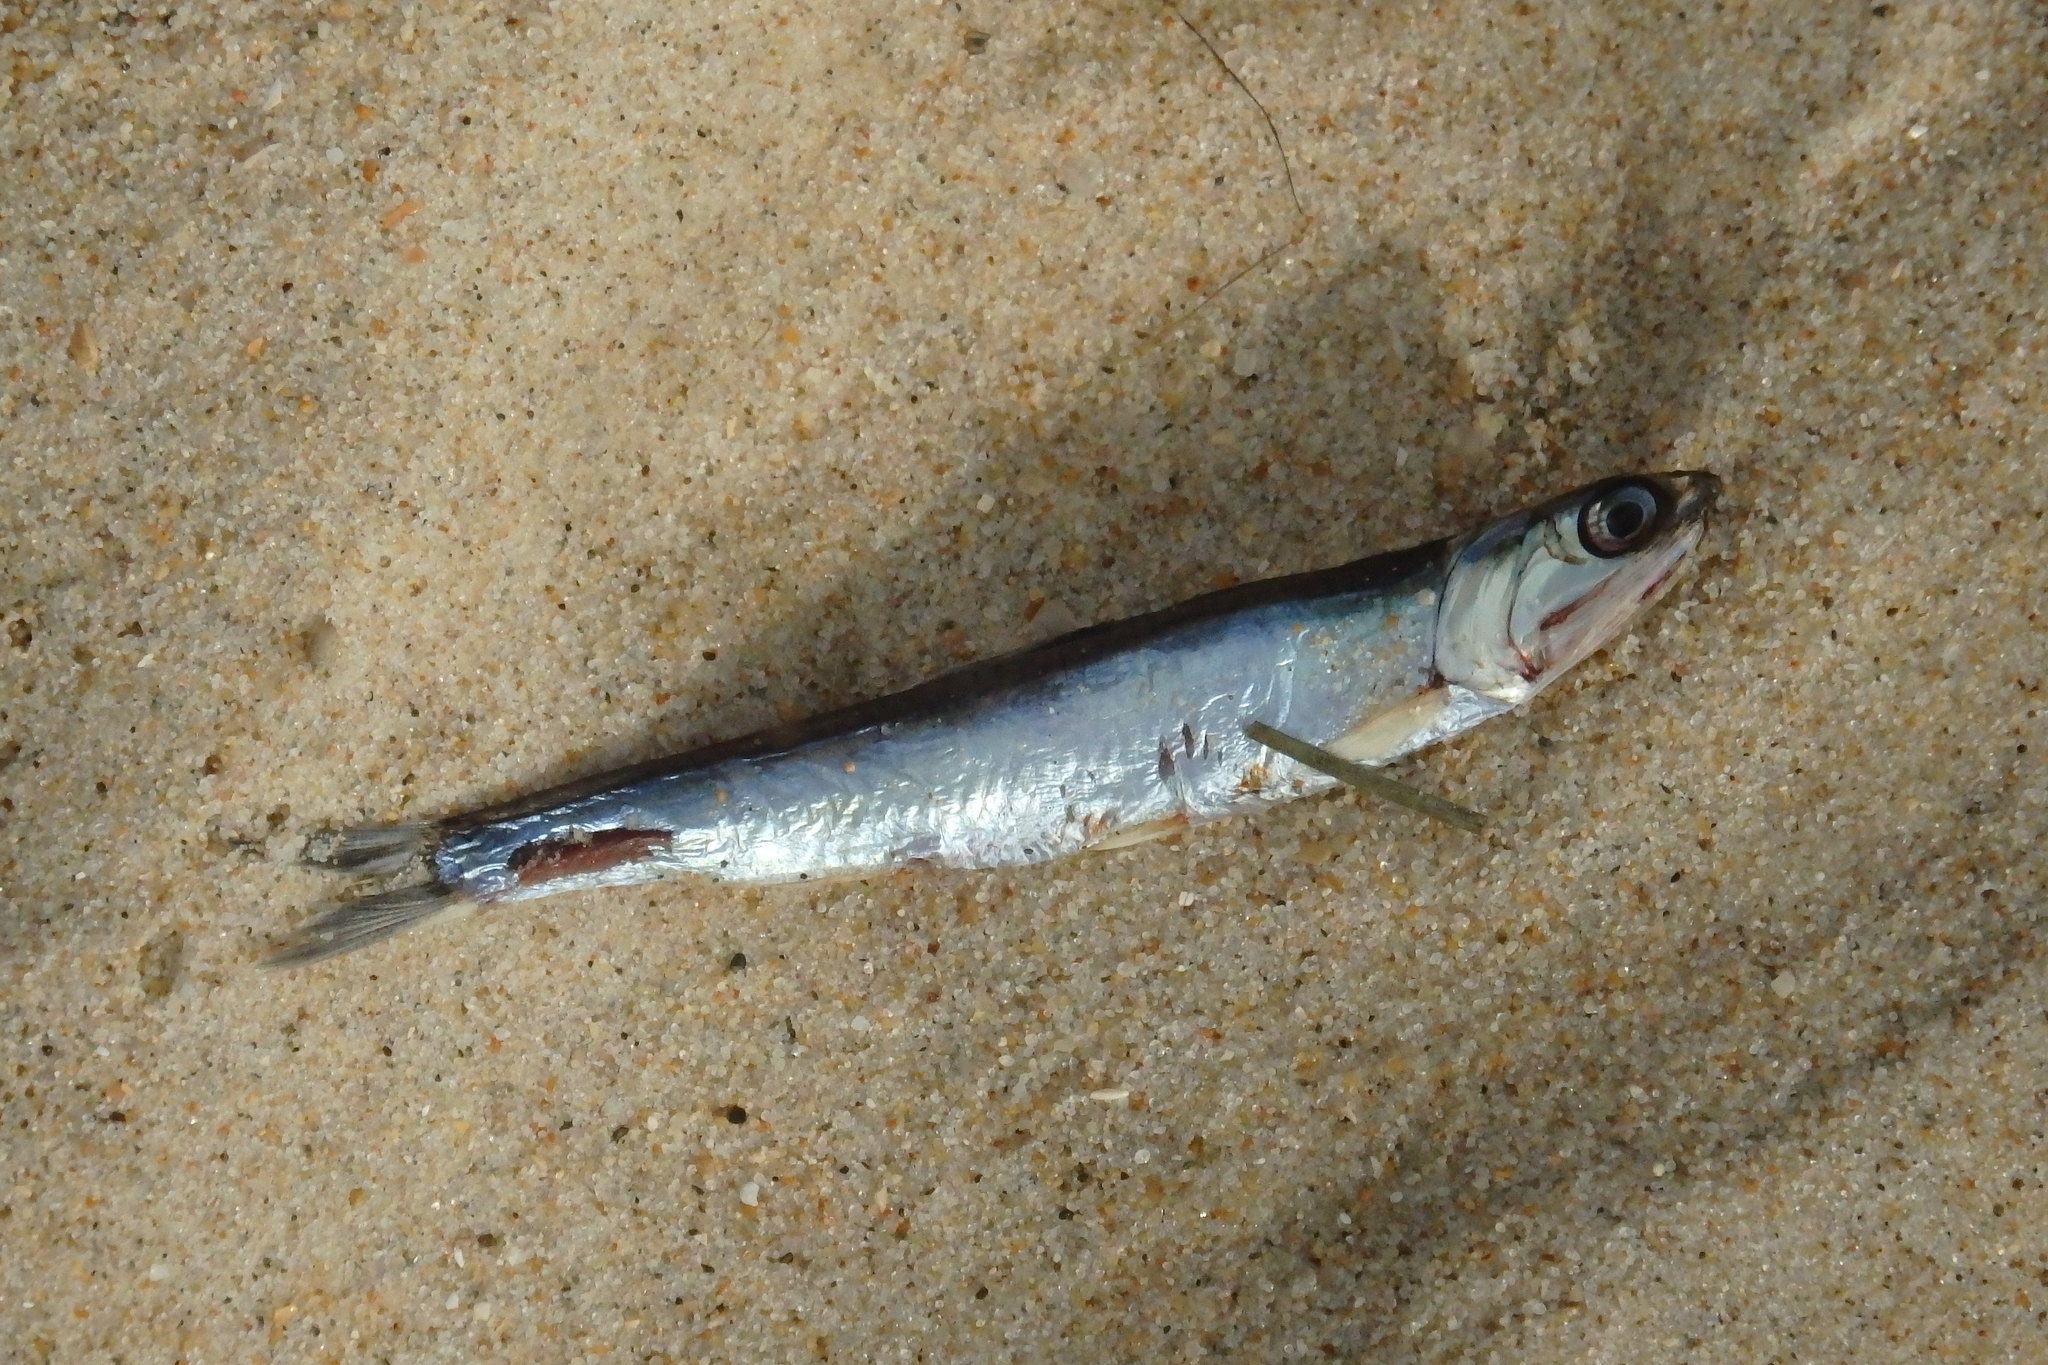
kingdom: Animalia
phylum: Chordata
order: Clupeiformes
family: Engraulidae
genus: Engraulis
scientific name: Engraulis encrasicolus
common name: European anchovy
